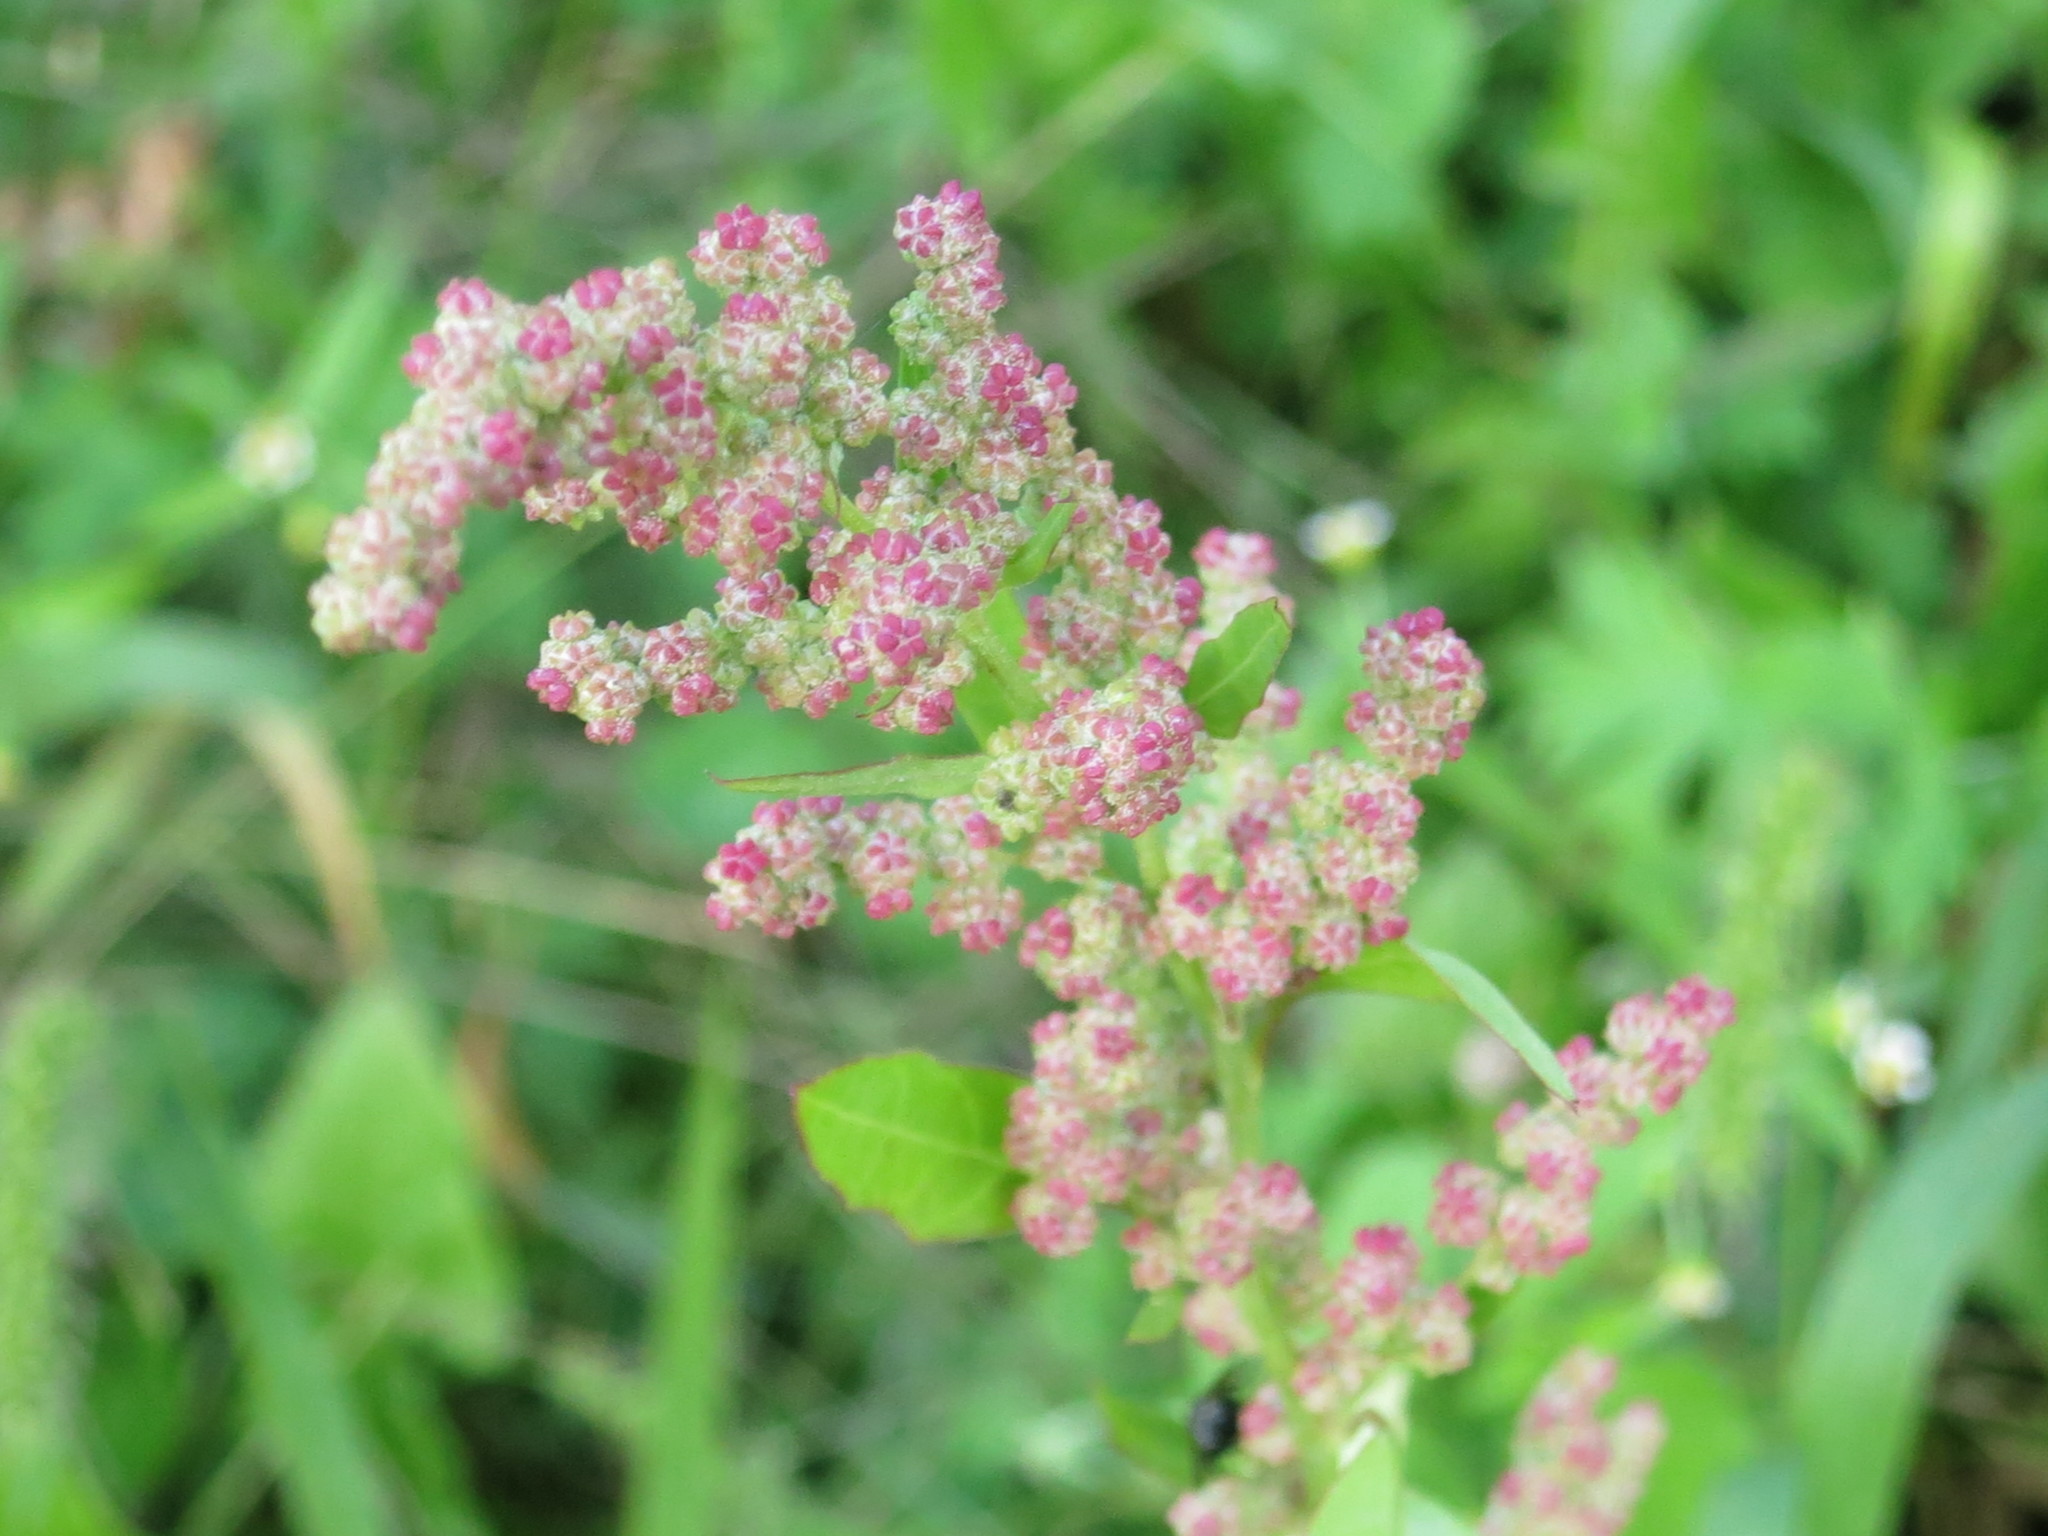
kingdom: Plantae
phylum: Tracheophyta
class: Magnoliopsida
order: Caryophyllales
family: Amaranthaceae
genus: Chenopodium
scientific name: Chenopodium album
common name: Fat-hen
